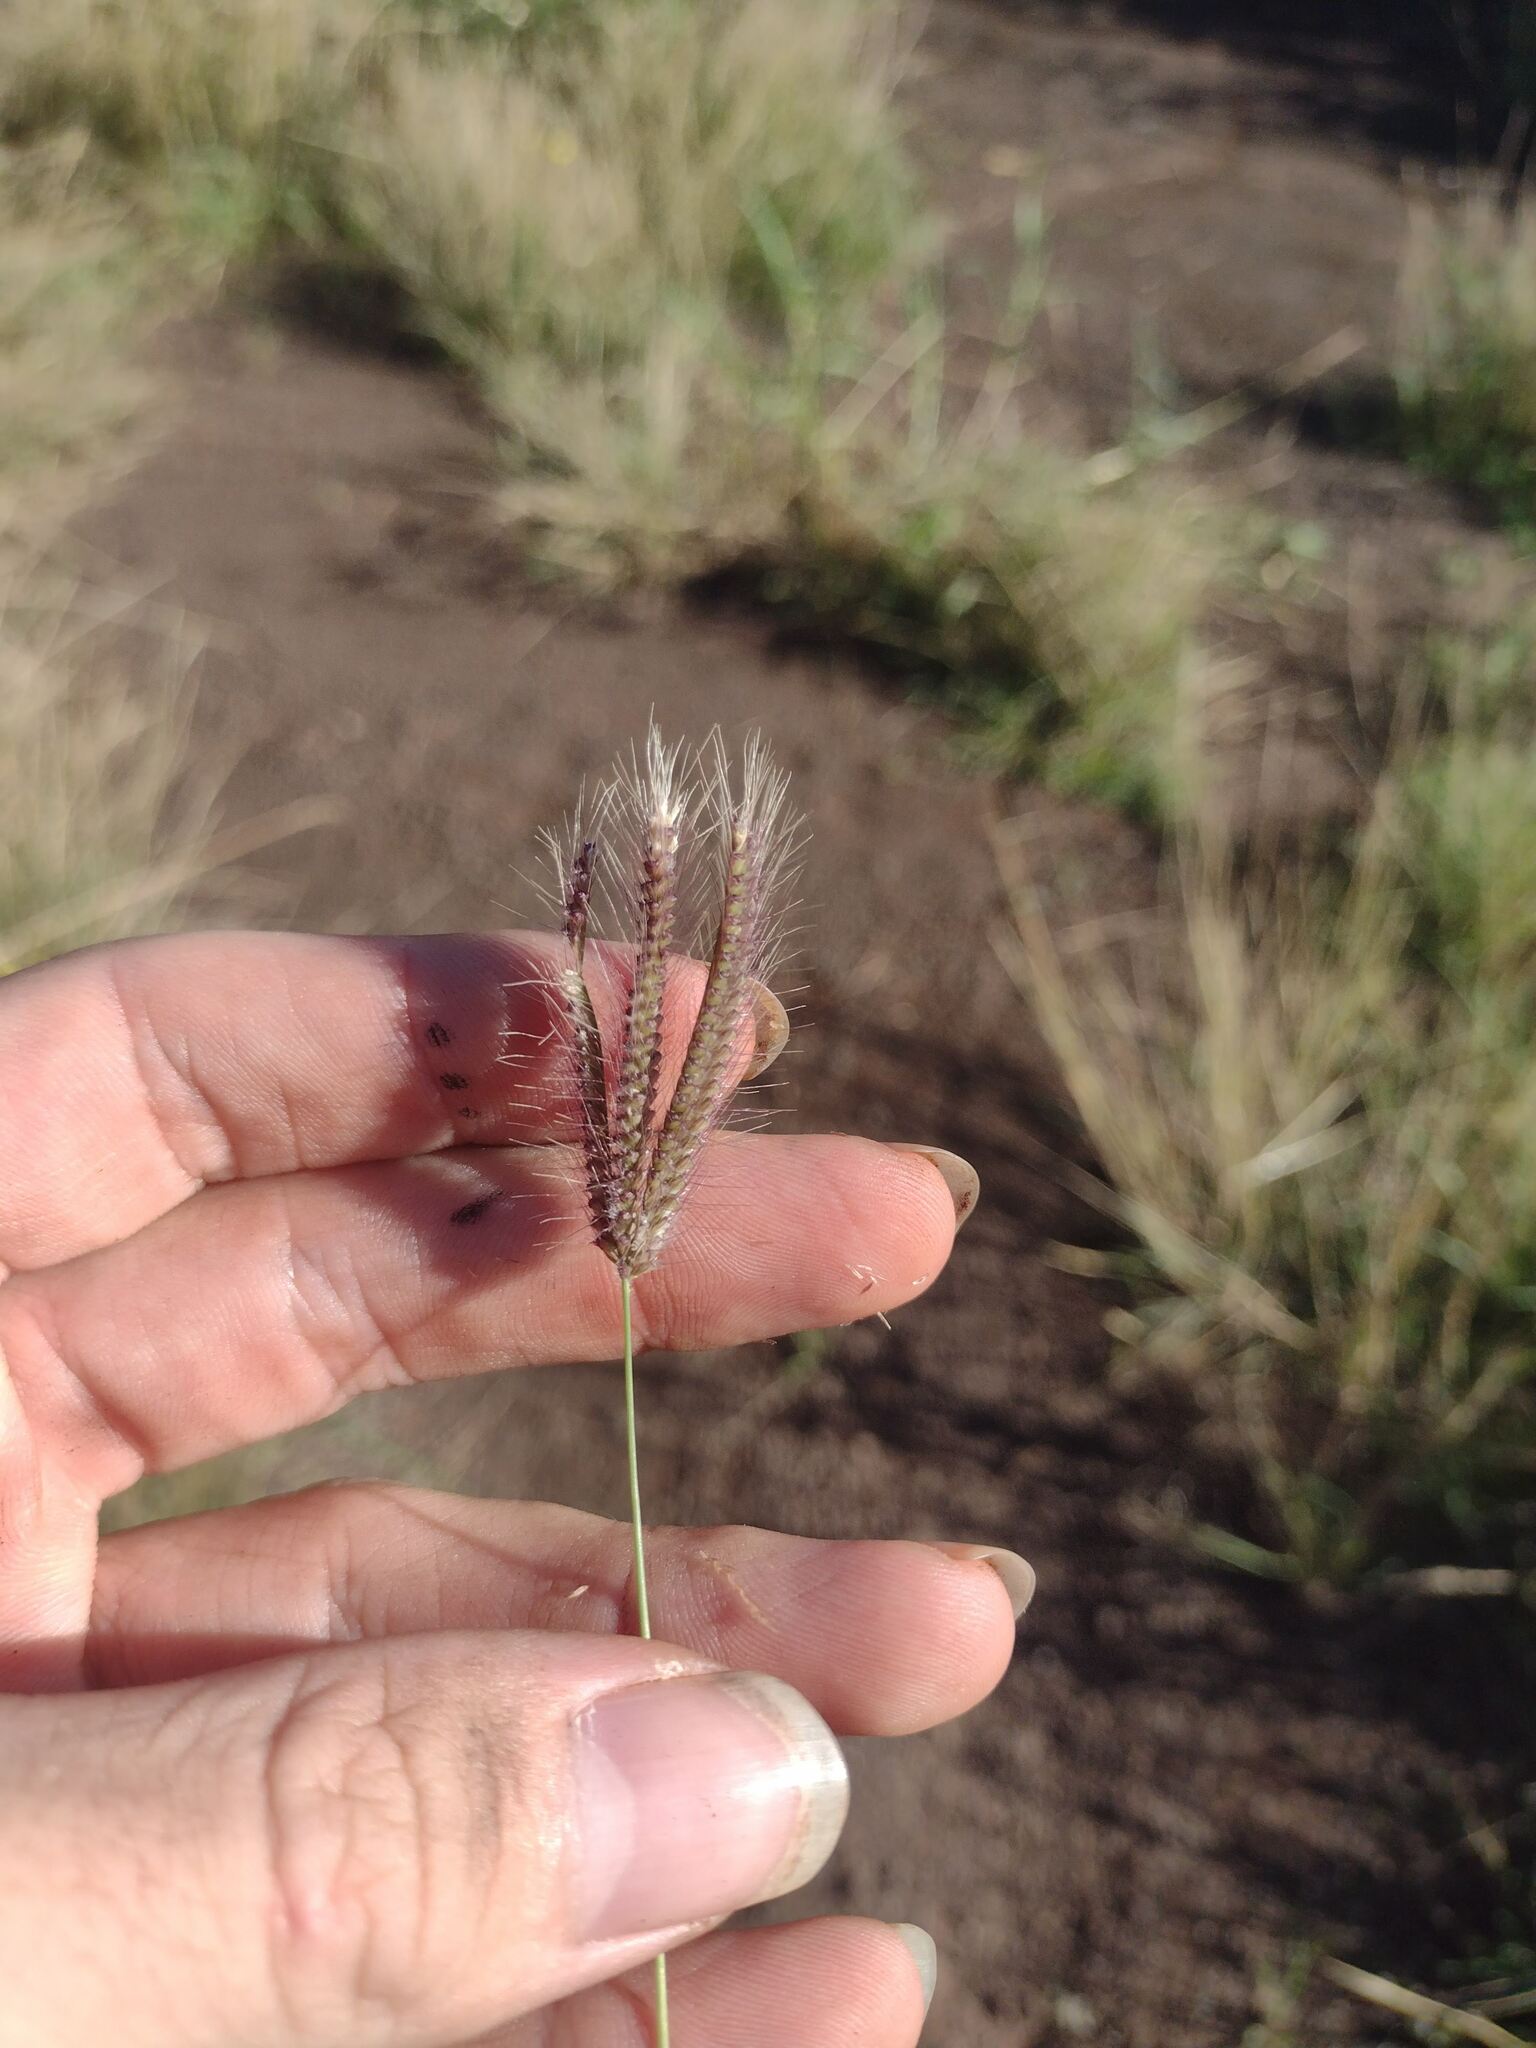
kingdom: Plantae
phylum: Tracheophyta
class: Liliopsida
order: Poales
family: Poaceae
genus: Chloris
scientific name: Chloris barbata
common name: Swollen fingergrass
